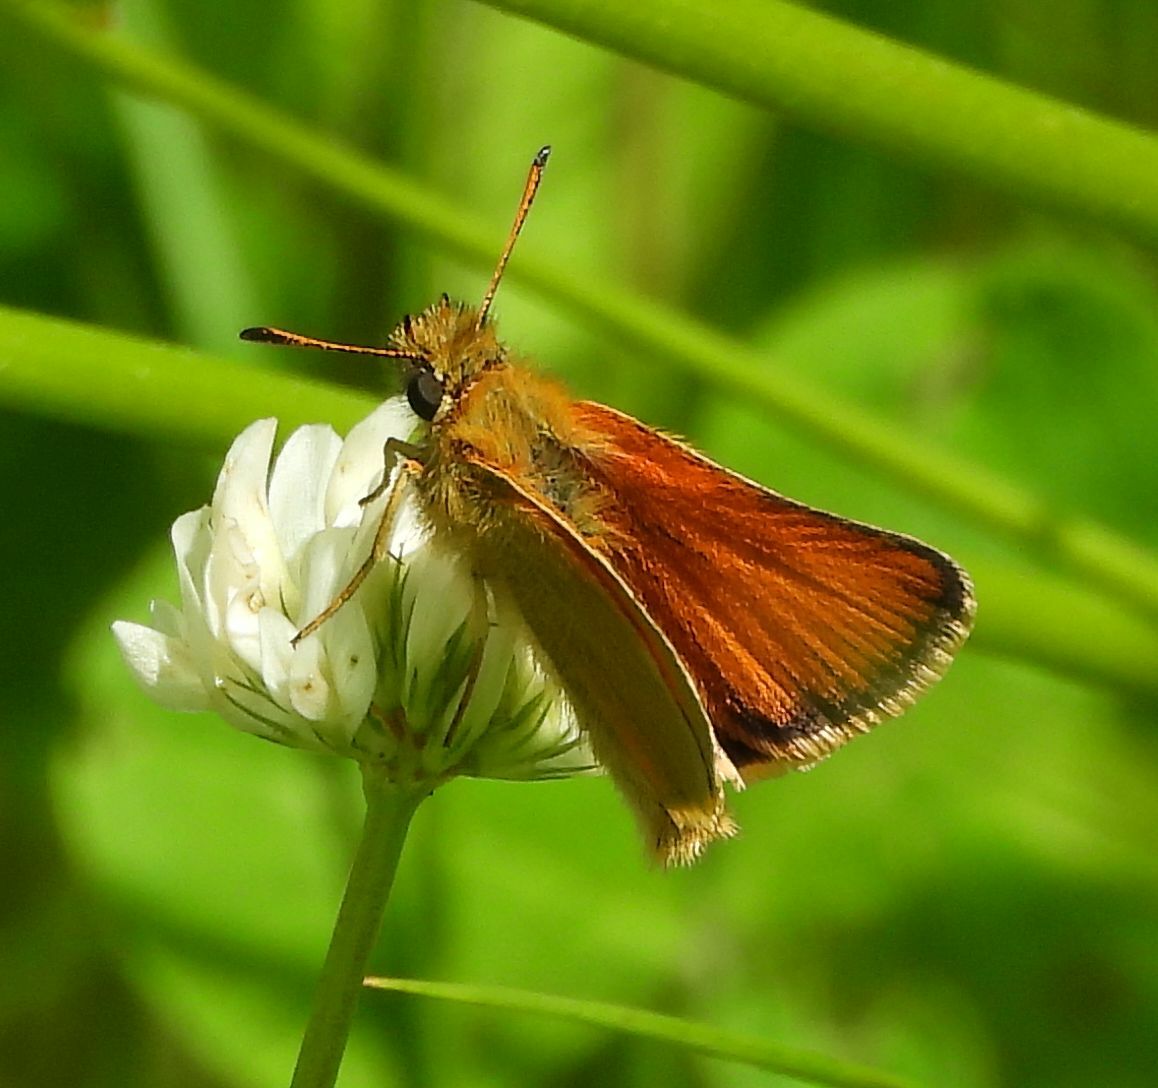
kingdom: Animalia
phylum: Arthropoda
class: Insecta
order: Lepidoptera
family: Hesperiidae
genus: Thymelicus
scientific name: Thymelicus lineola
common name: Essex skipper
